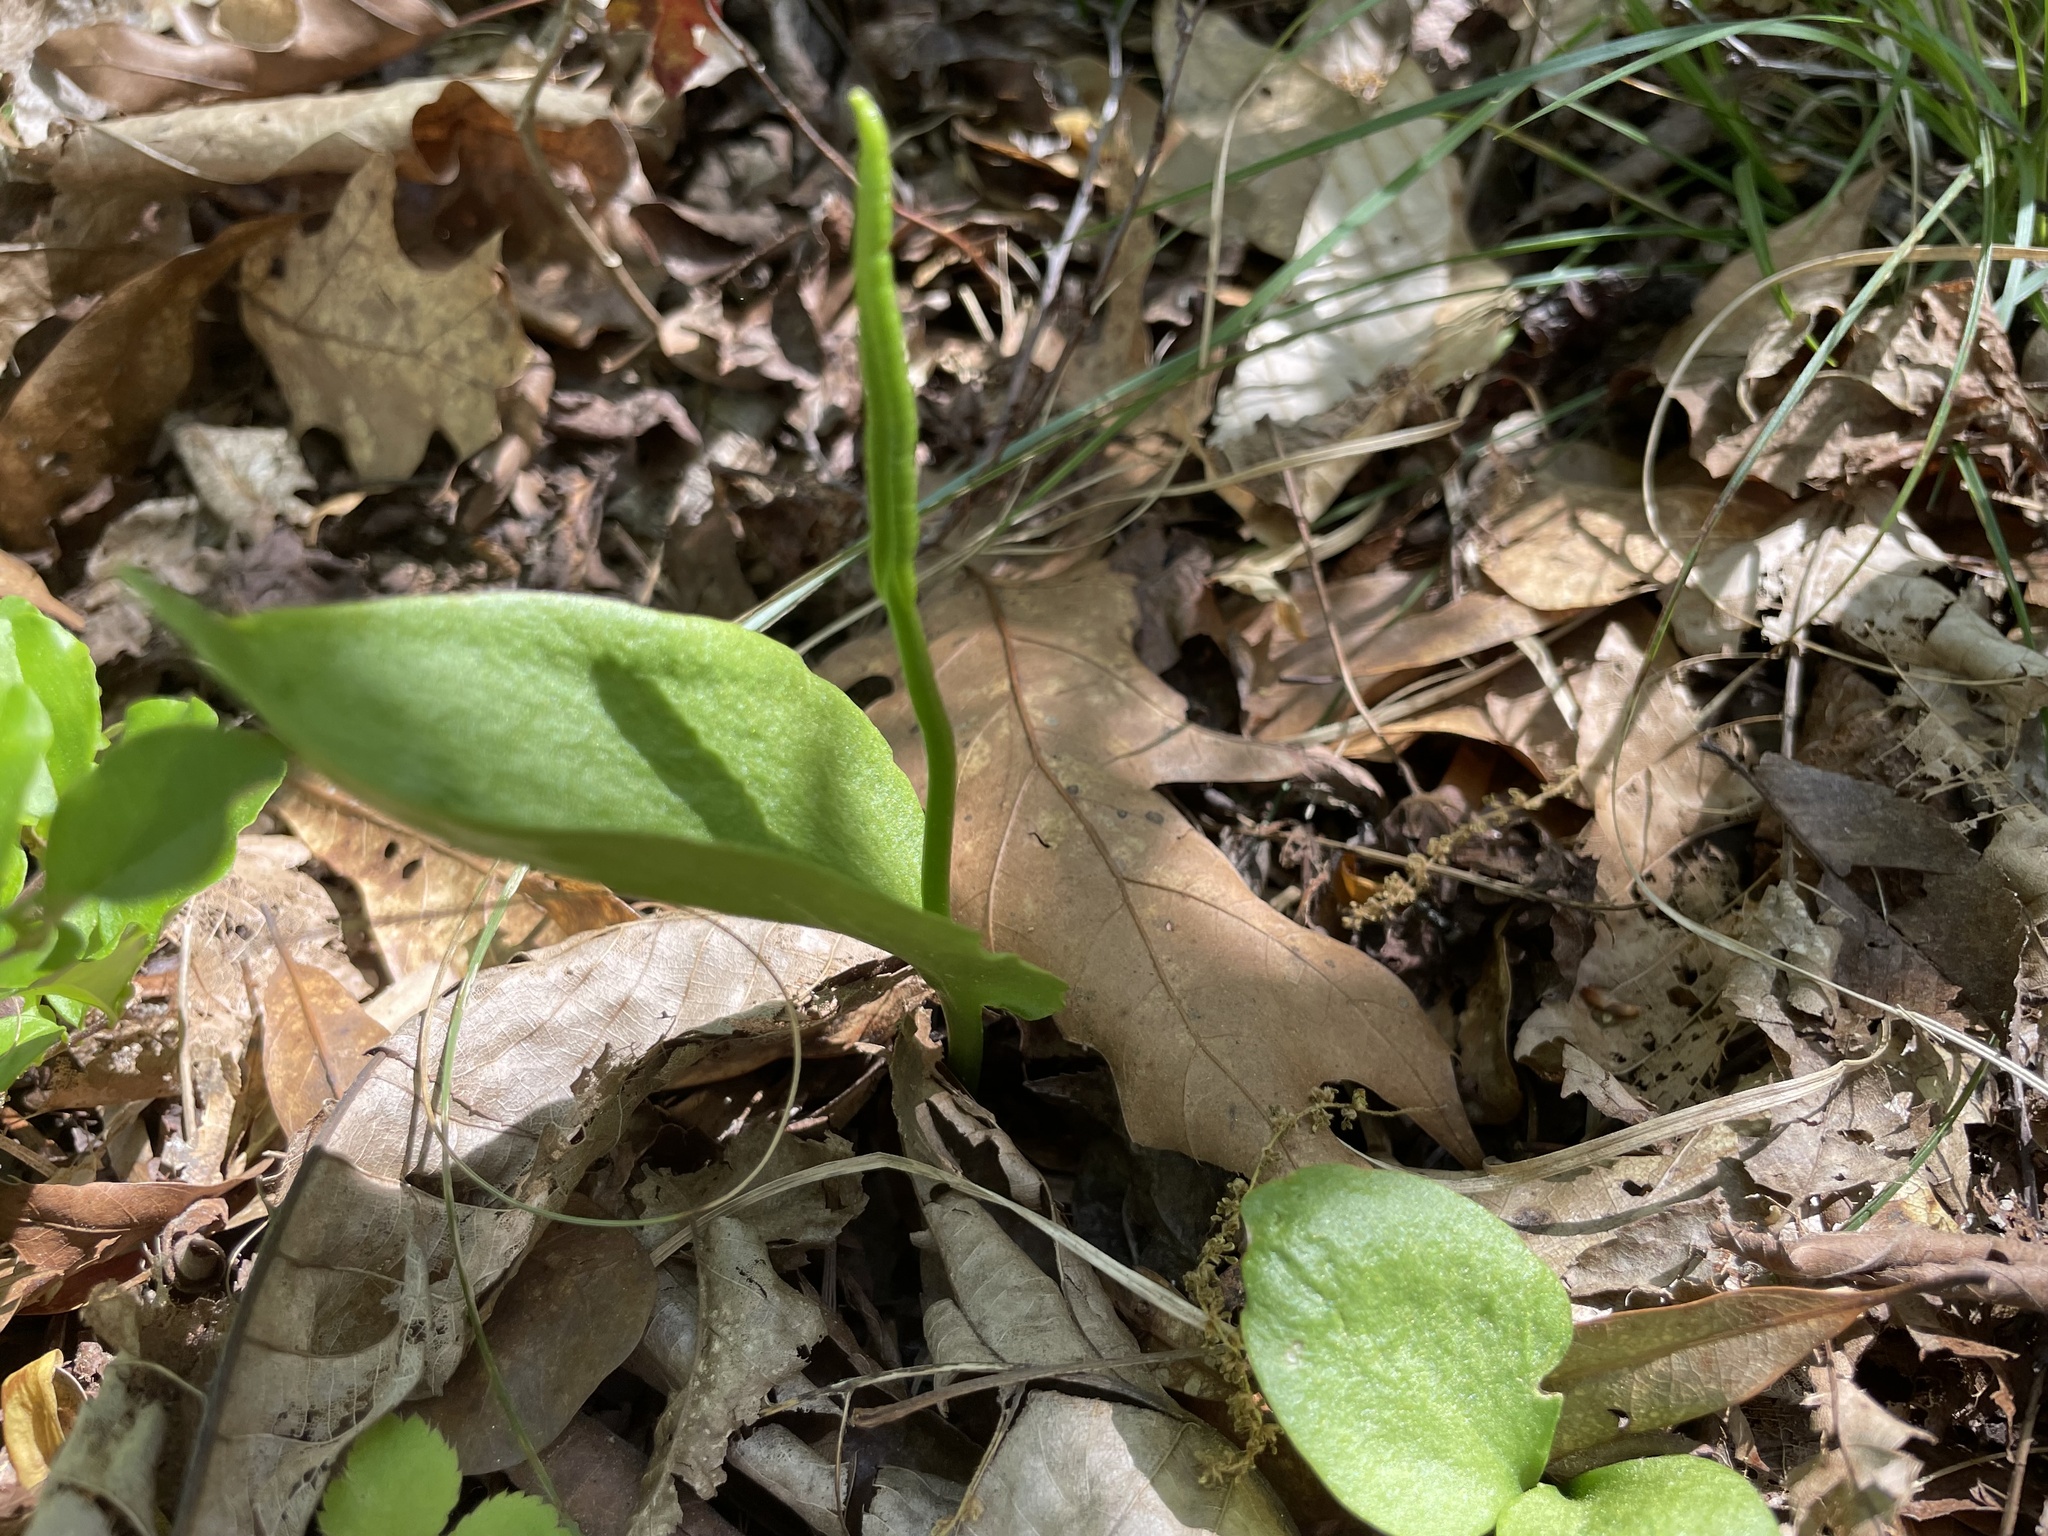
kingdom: Plantae
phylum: Tracheophyta
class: Polypodiopsida
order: Ophioglossales
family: Ophioglossaceae
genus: Ophioglossum
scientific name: Ophioglossum vulgatum
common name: Adder's-tongue
